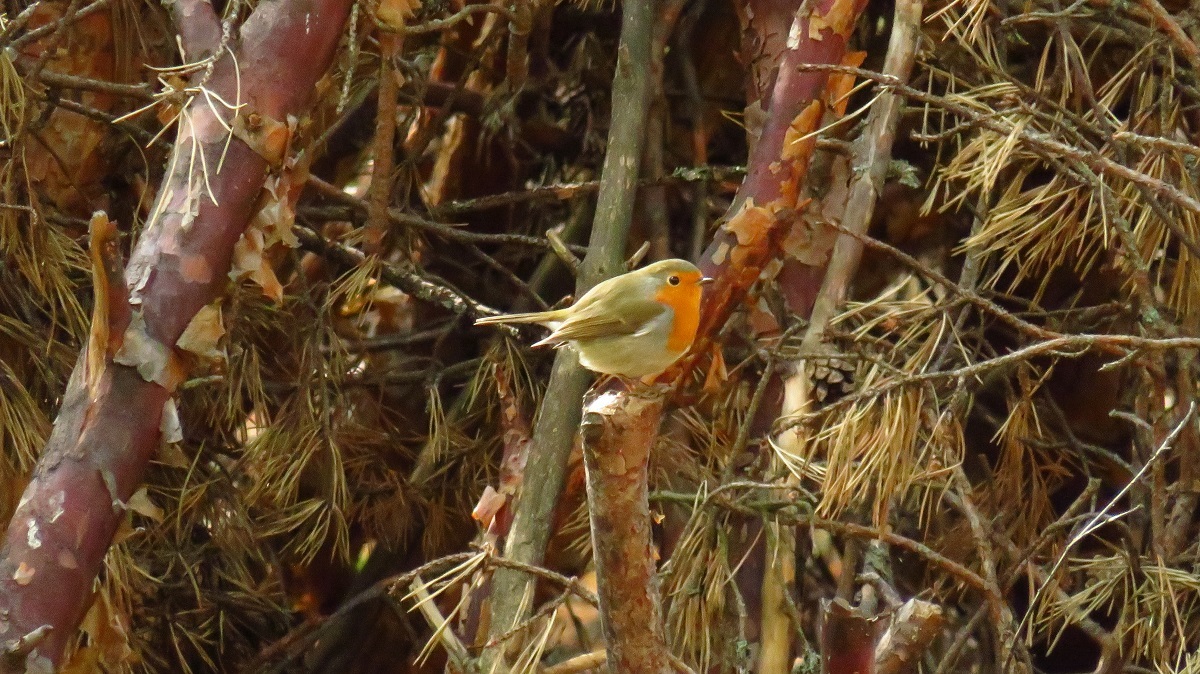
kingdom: Animalia
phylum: Chordata
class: Aves
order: Passeriformes
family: Muscicapidae
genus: Erithacus
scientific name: Erithacus rubecula
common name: European robin
